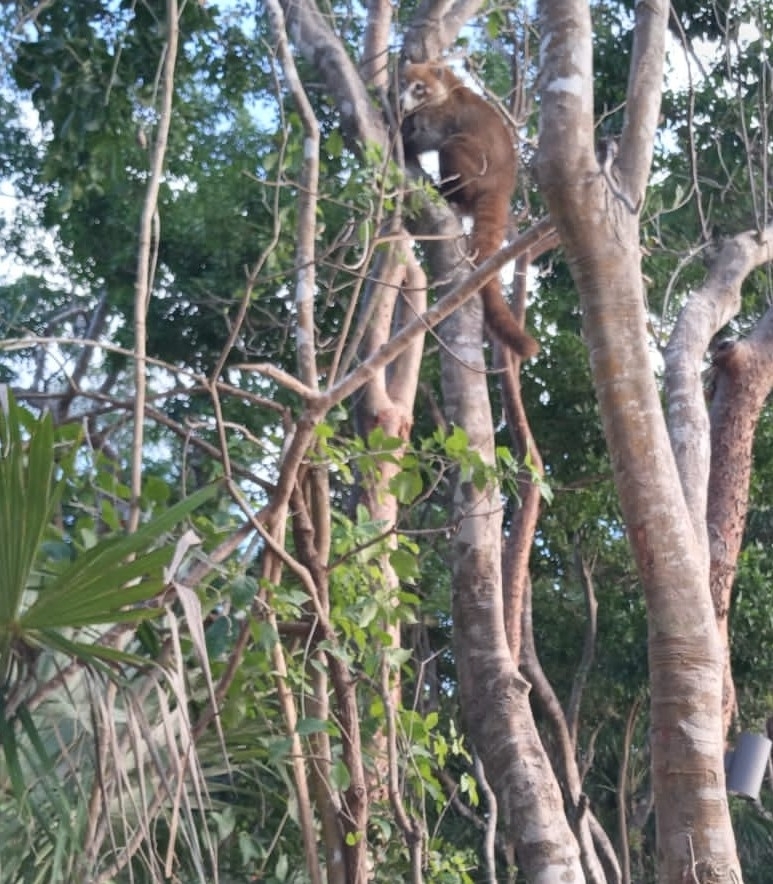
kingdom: Animalia
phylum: Chordata
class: Mammalia
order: Carnivora
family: Procyonidae
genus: Nasua
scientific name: Nasua narica
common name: White-nosed coati
